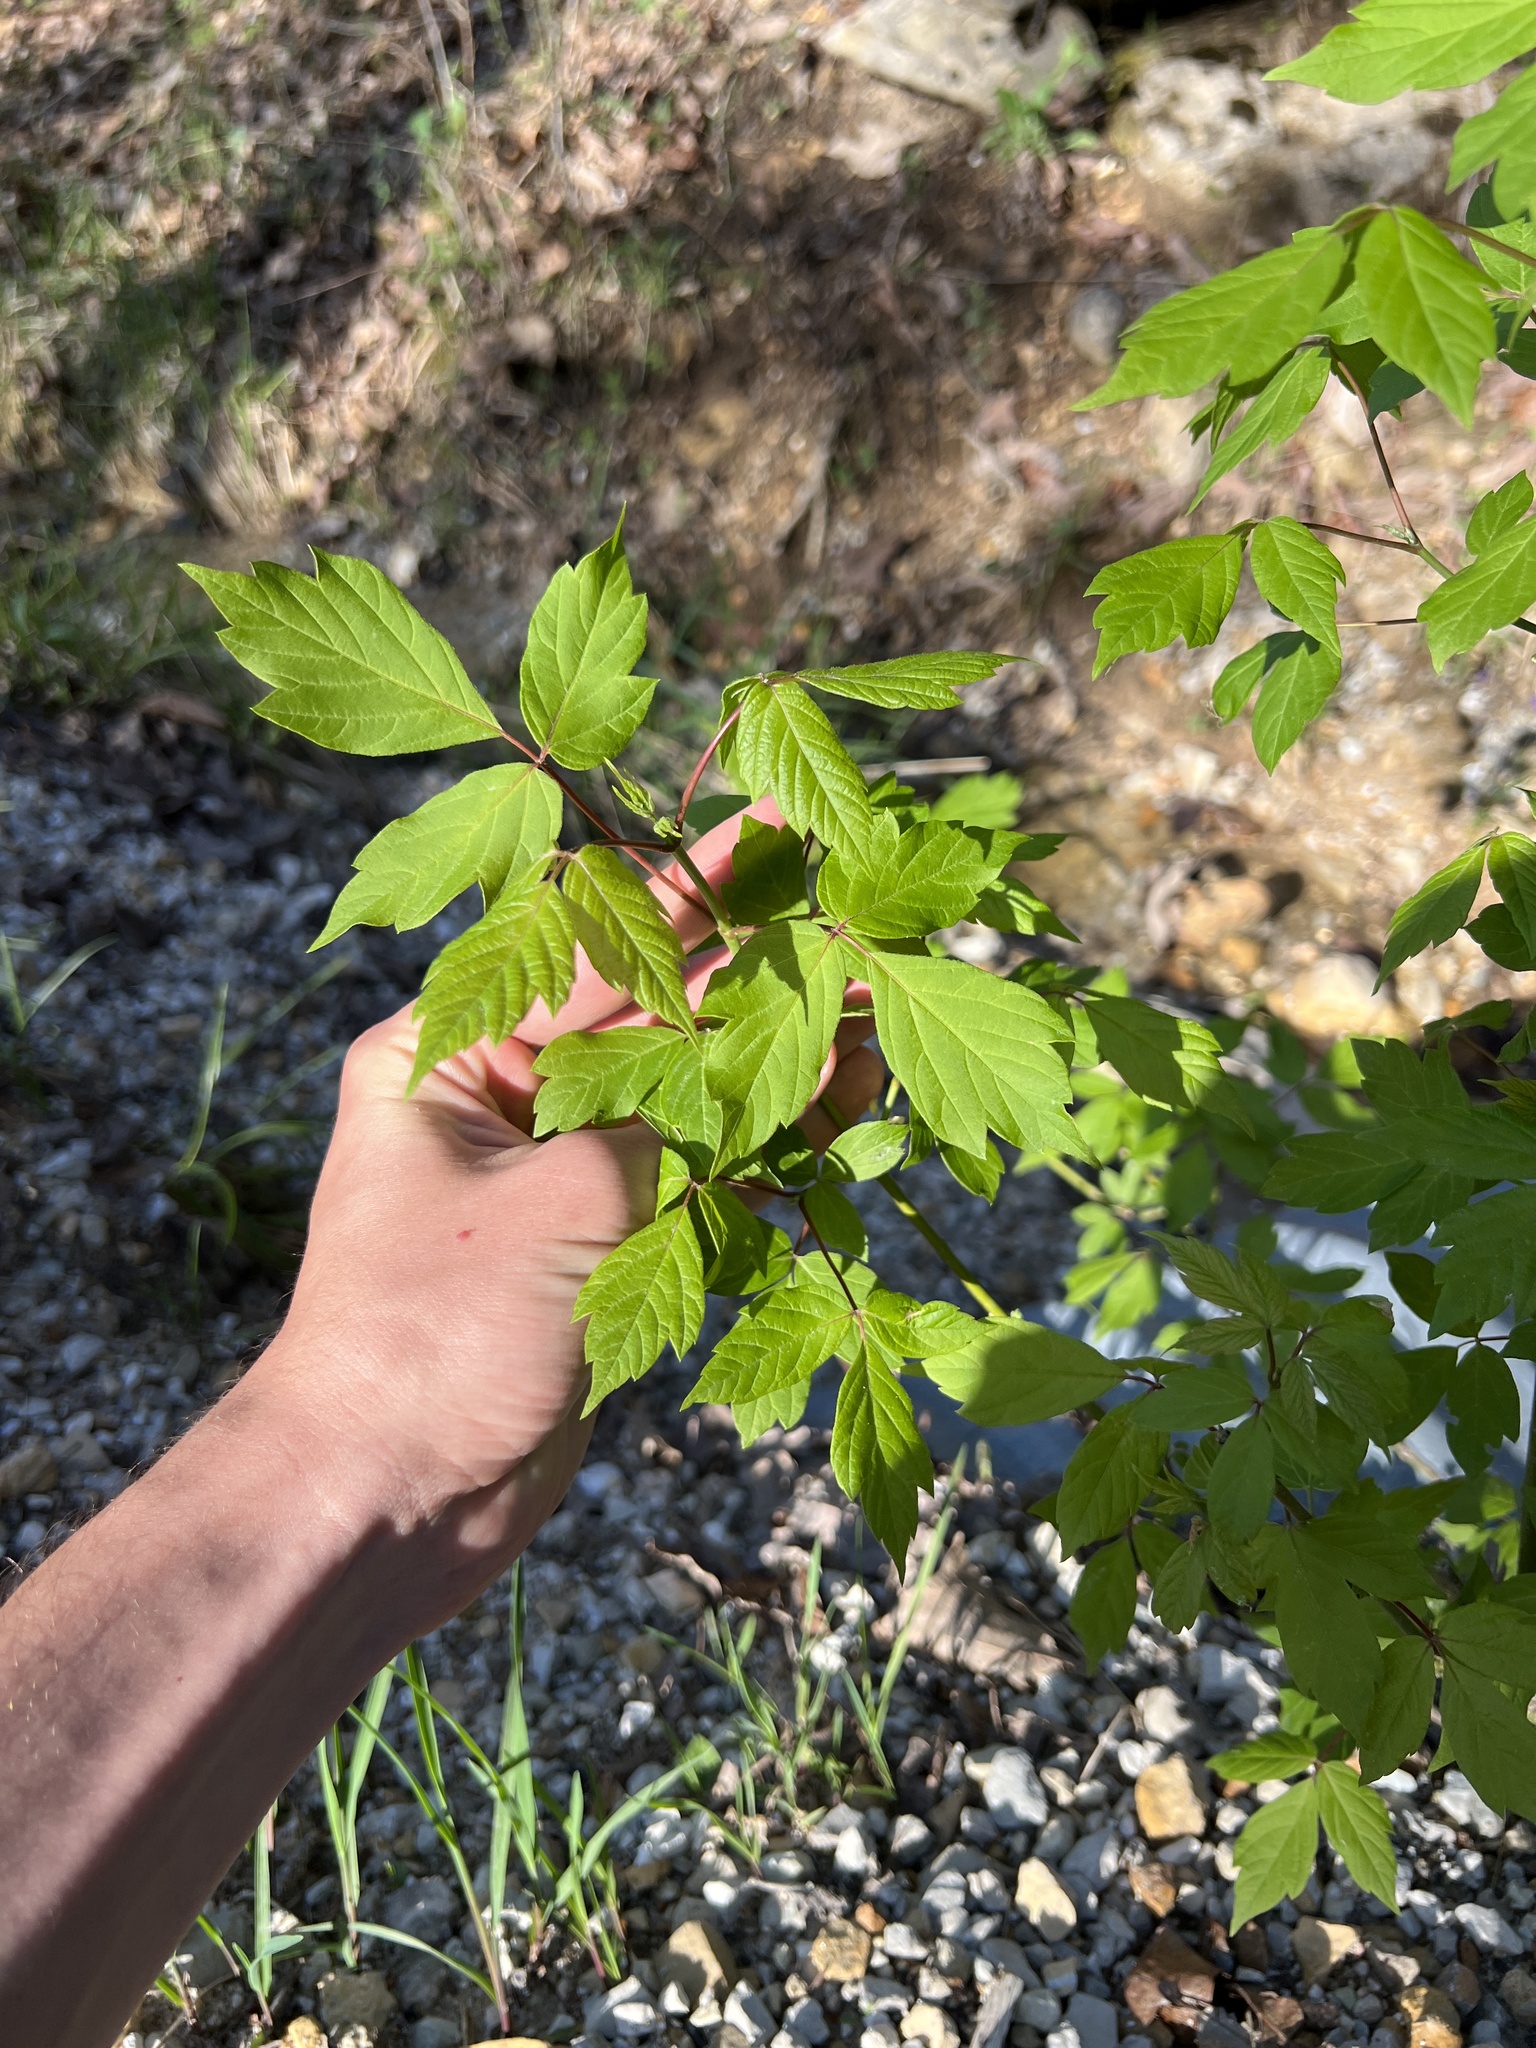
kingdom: Plantae
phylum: Tracheophyta
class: Magnoliopsida
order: Sapindales
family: Sapindaceae
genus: Acer
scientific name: Acer negundo
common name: Ashleaf maple
